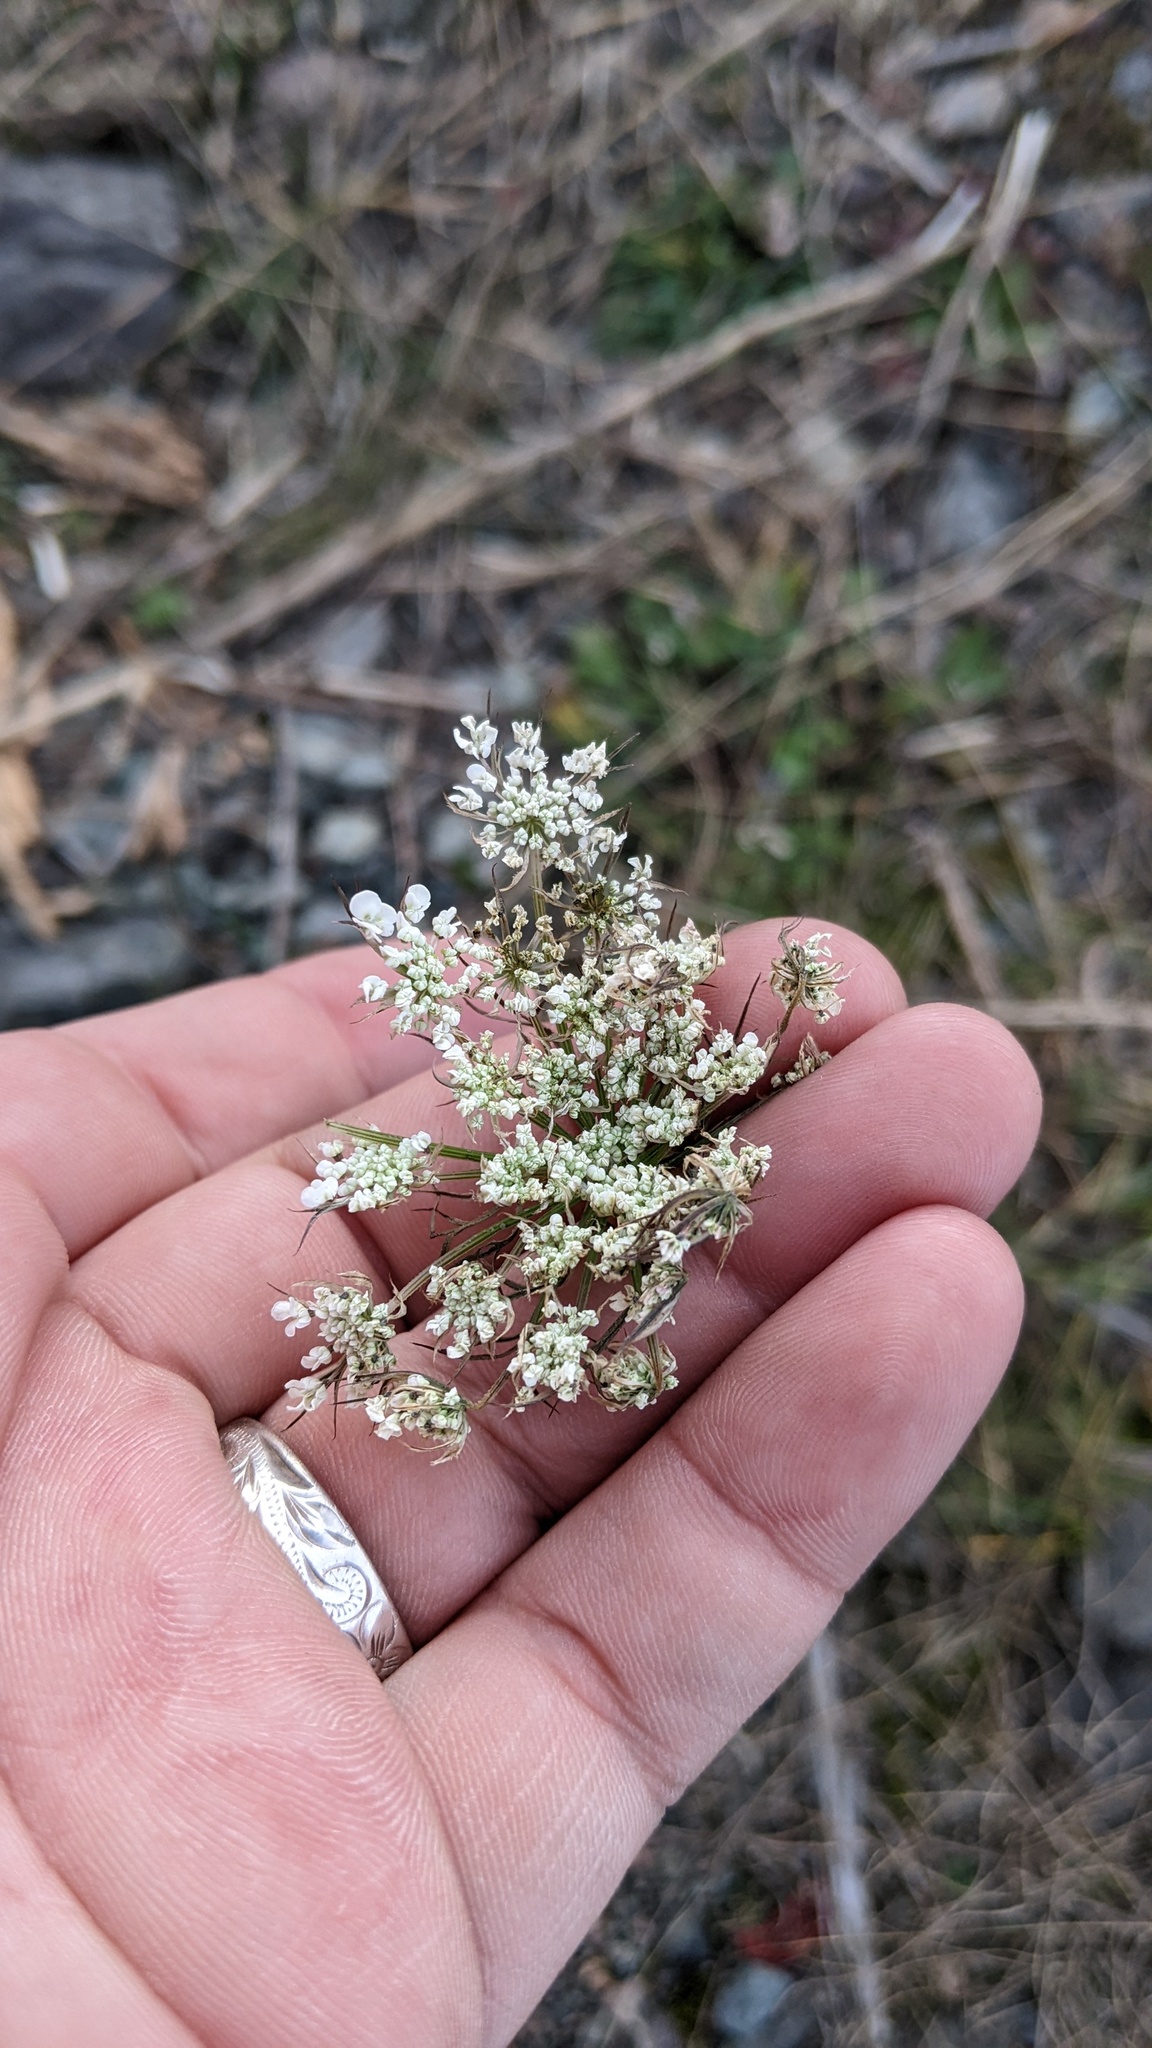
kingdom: Plantae
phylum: Tracheophyta
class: Magnoliopsida
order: Apiales
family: Apiaceae
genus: Daucus
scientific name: Daucus carota
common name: Wild carrot
